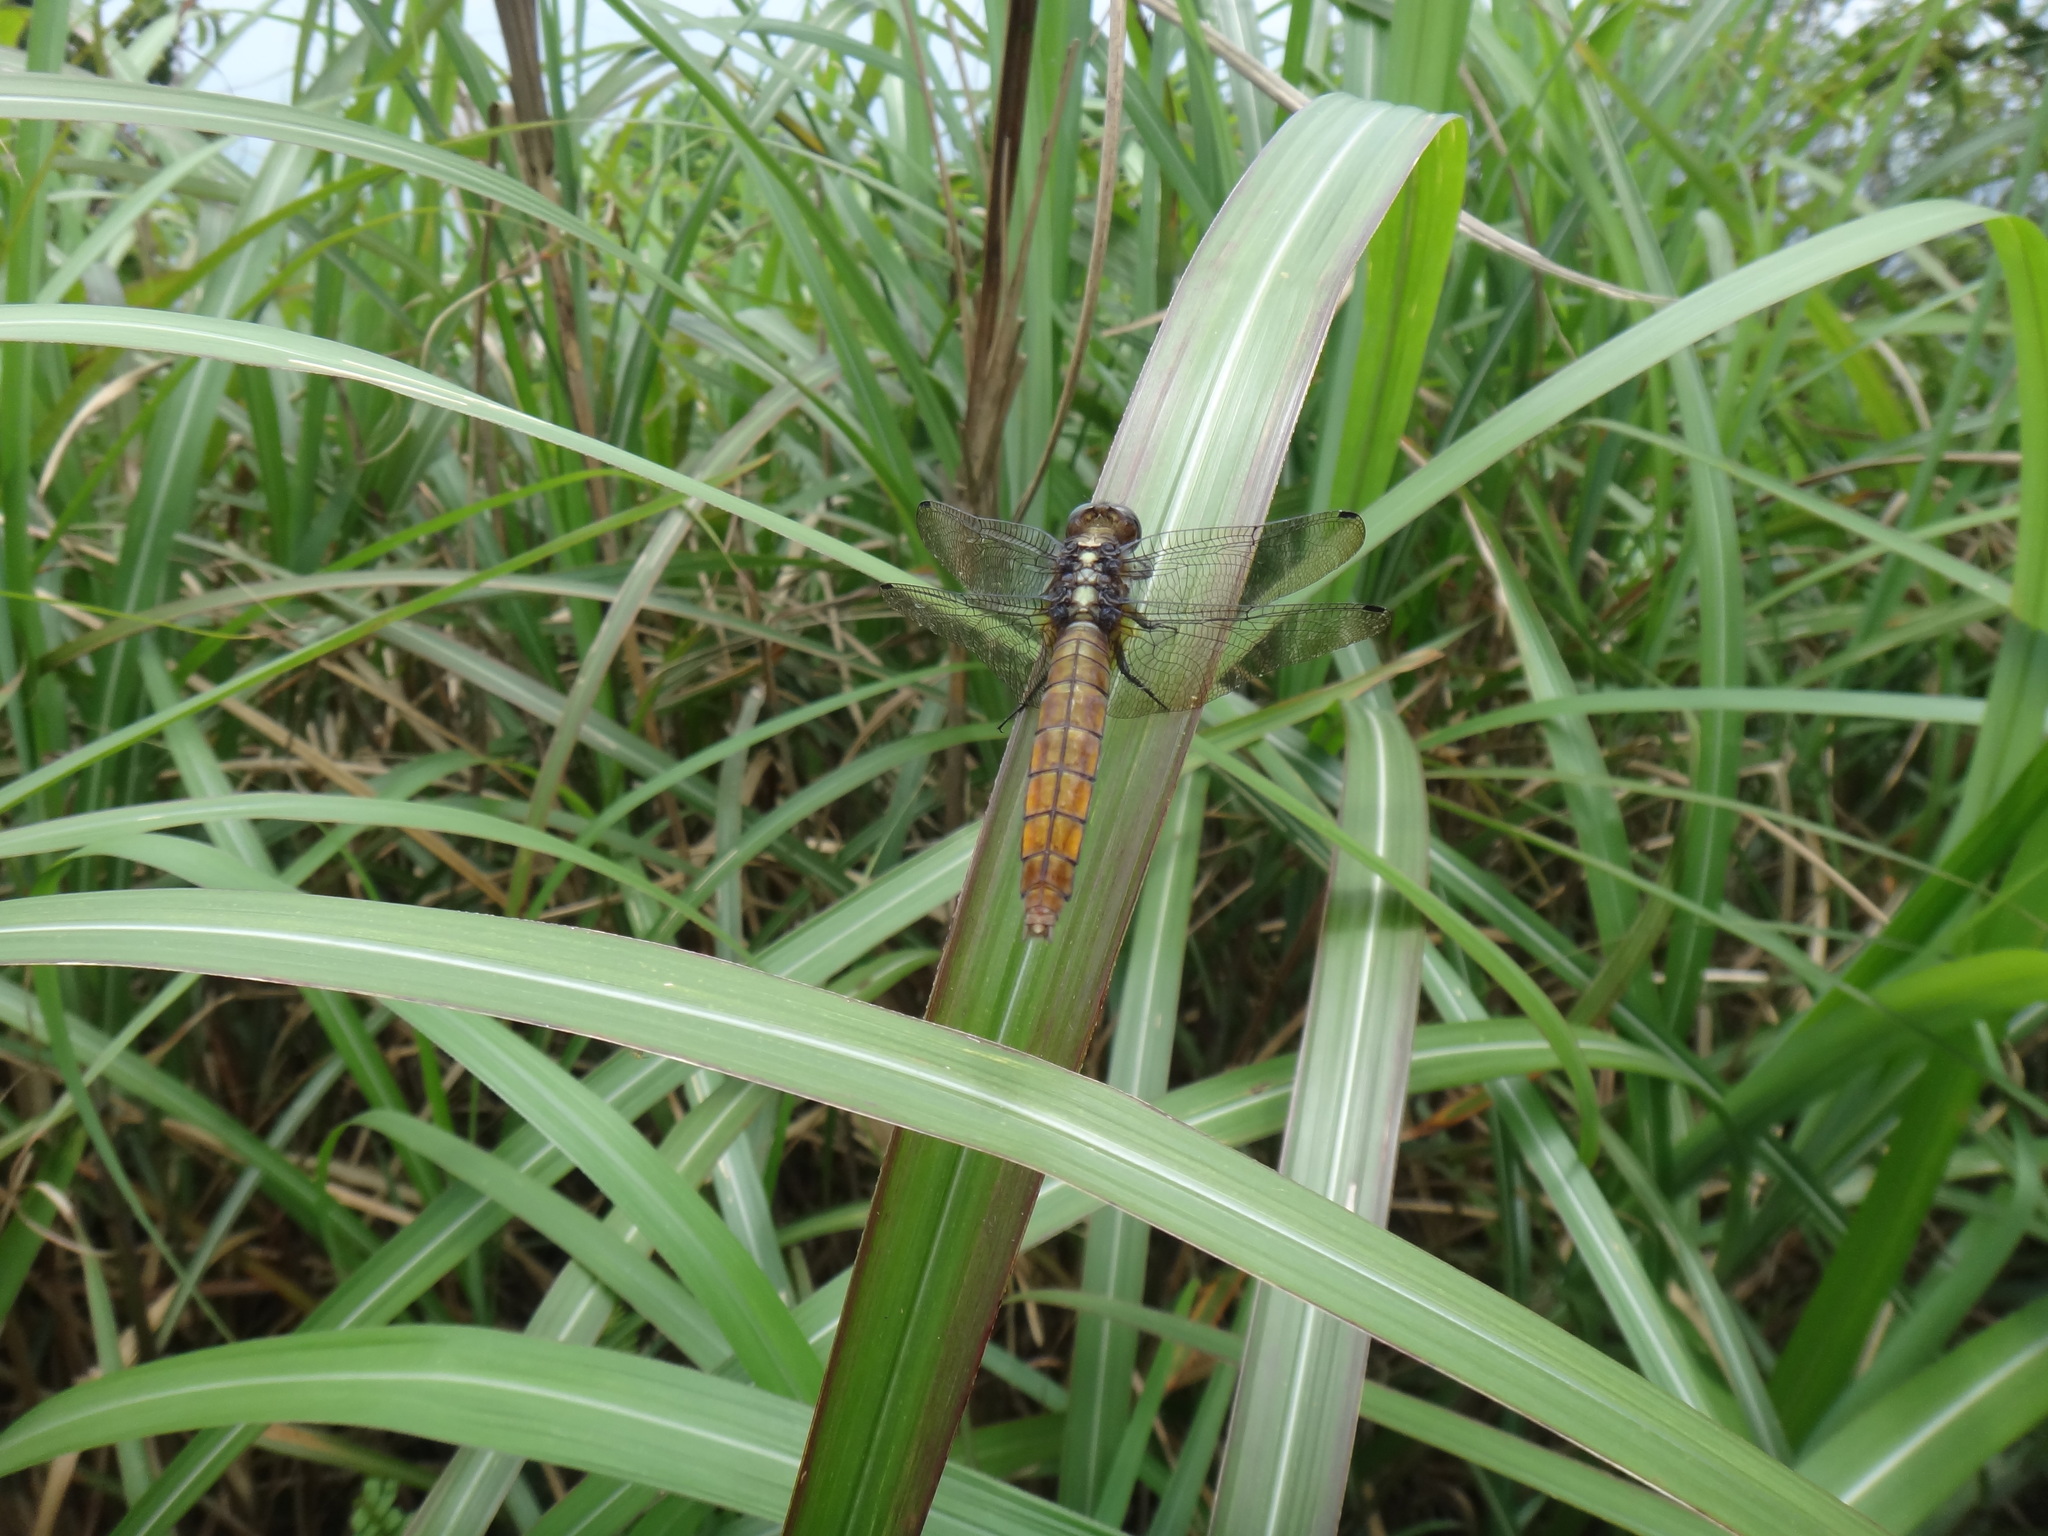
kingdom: Animalia
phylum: Arthropoda
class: Insecta
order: Odonata
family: Libellulidae
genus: Orthetrum
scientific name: Orthetrum pruinosum
